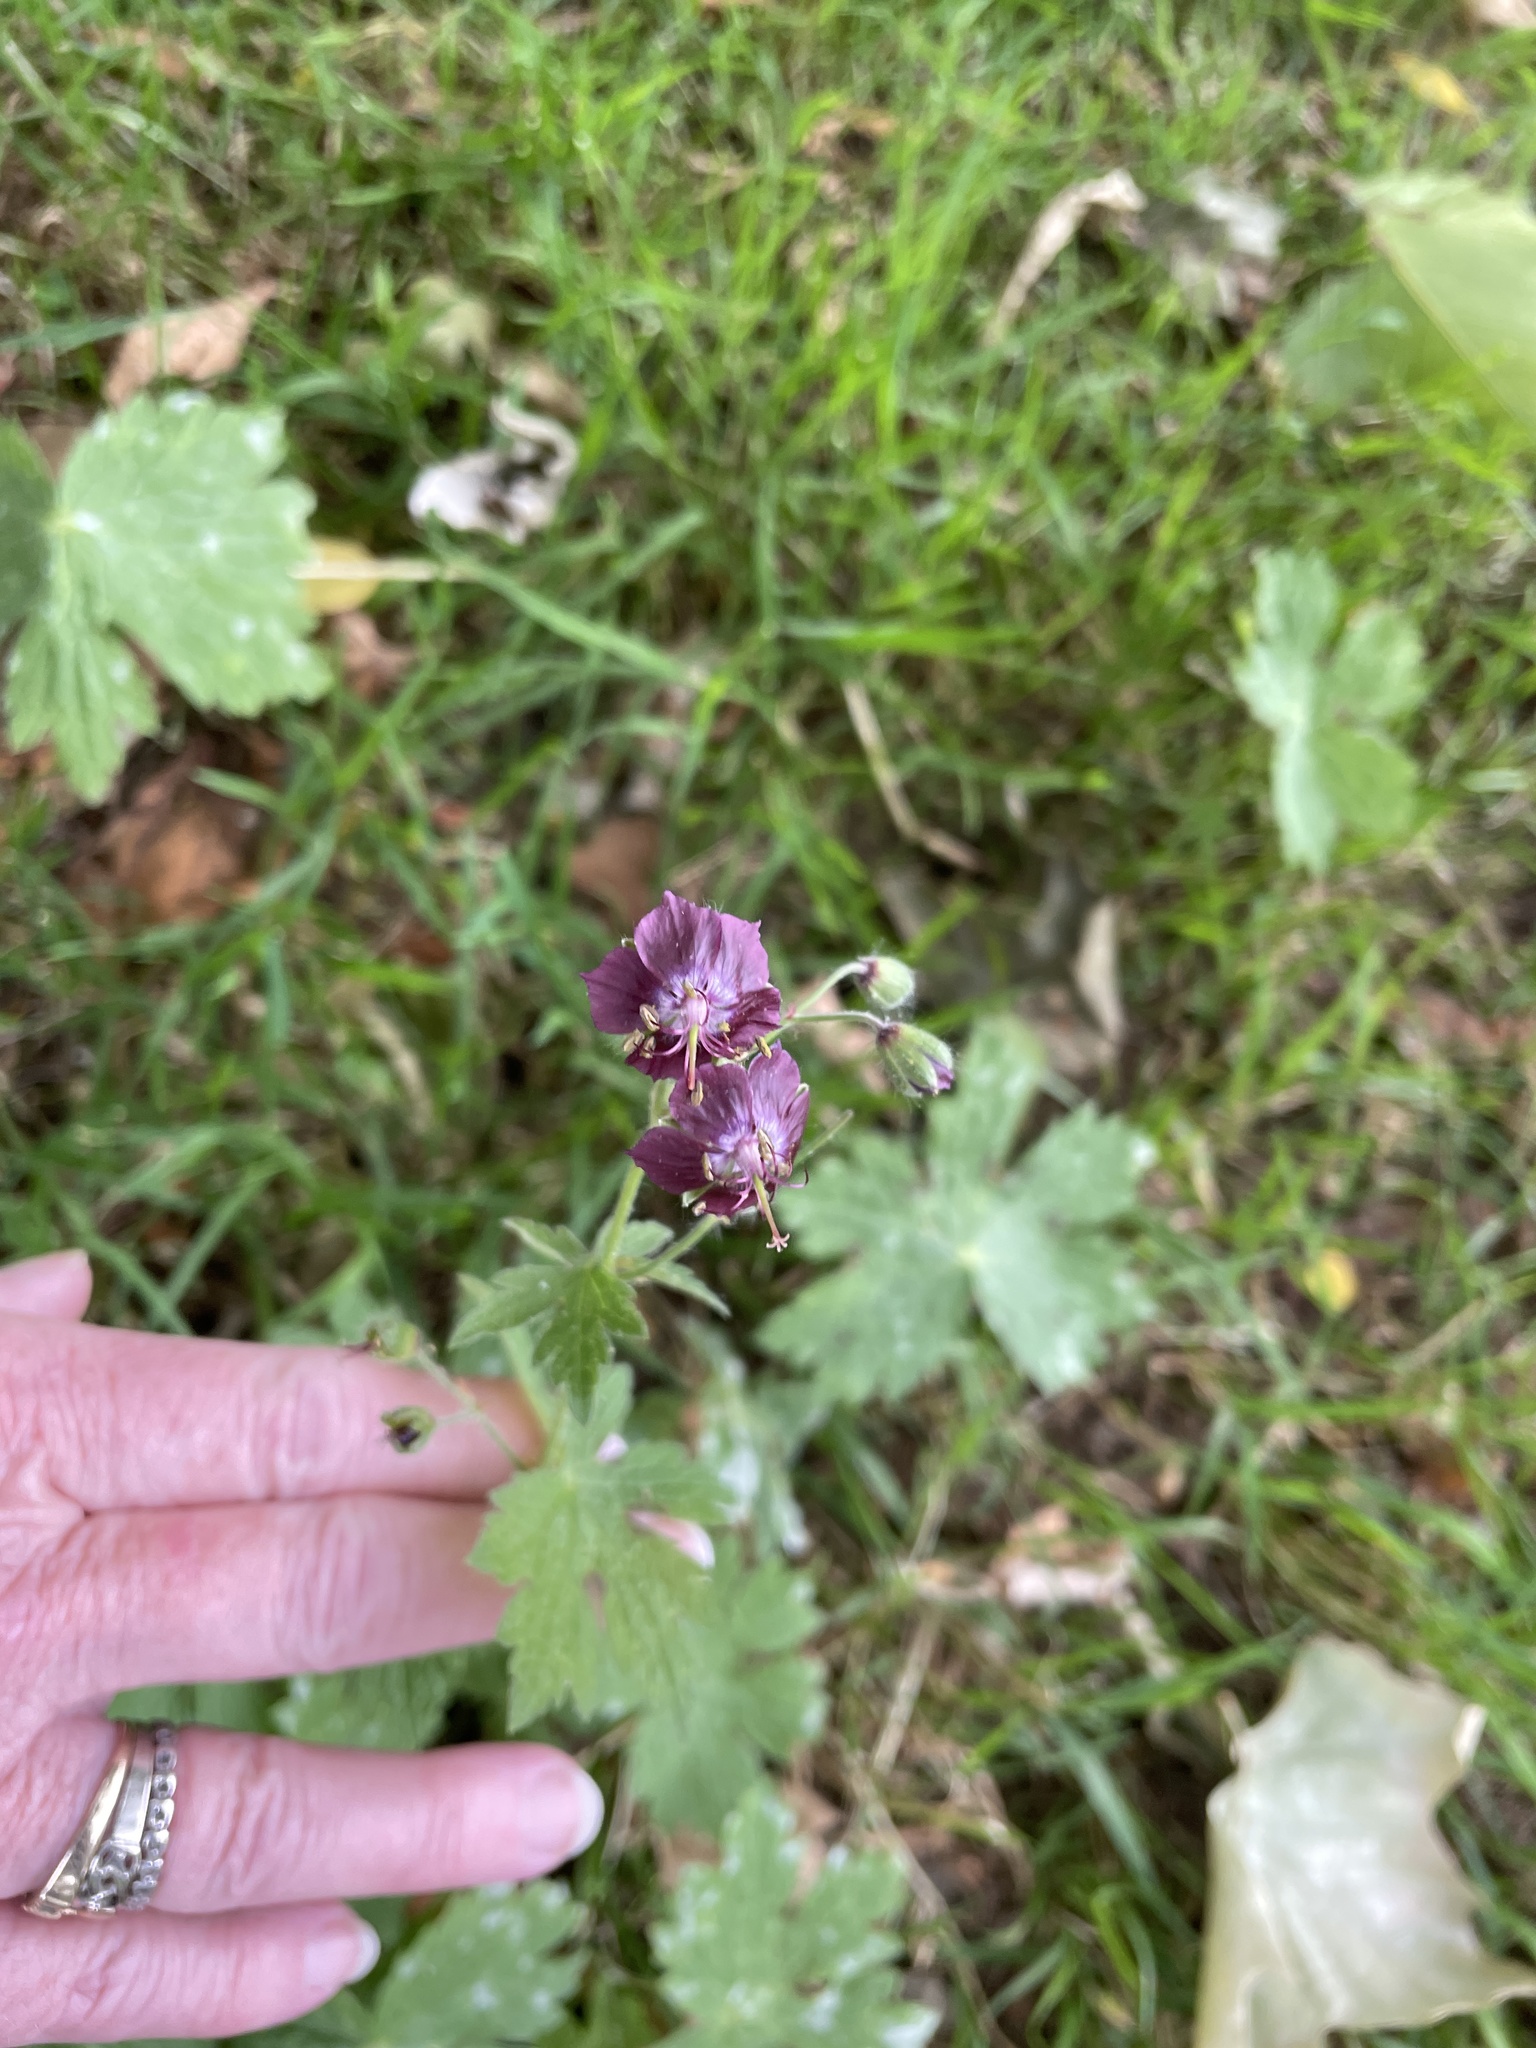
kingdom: Plantae
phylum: Tracheophyta
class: Magnoliopsida
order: Geraniales
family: Geraniaceae
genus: Geranium
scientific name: Geranium phaeum
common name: Dusky crane's-bill
